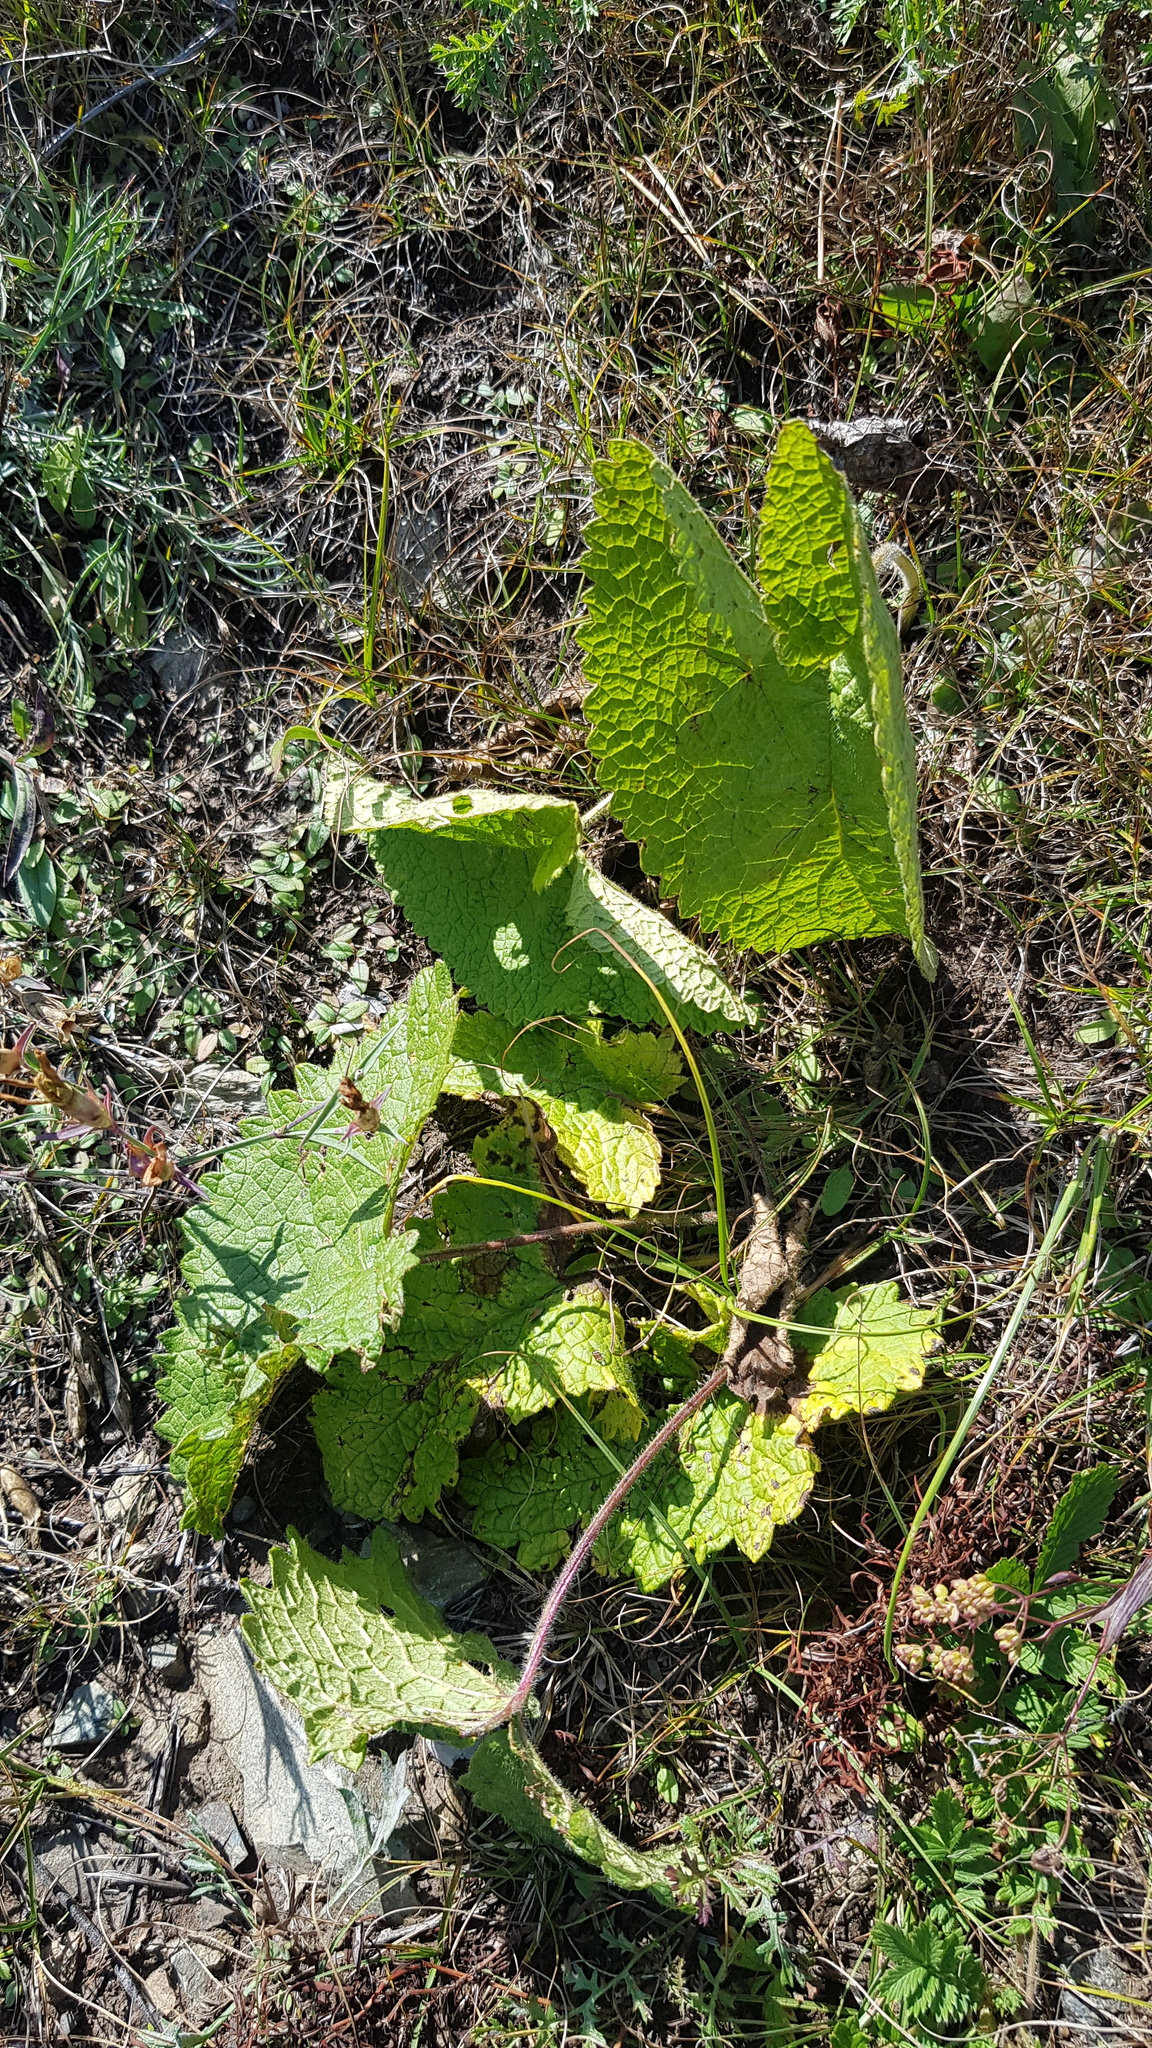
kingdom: Plantae
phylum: Tracheophyta
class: Magnoliopsida
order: Lamiales
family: Lamiaceae
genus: Phlomoides
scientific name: Phlomoides tuberosa
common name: Tuberous jerusalem sage
